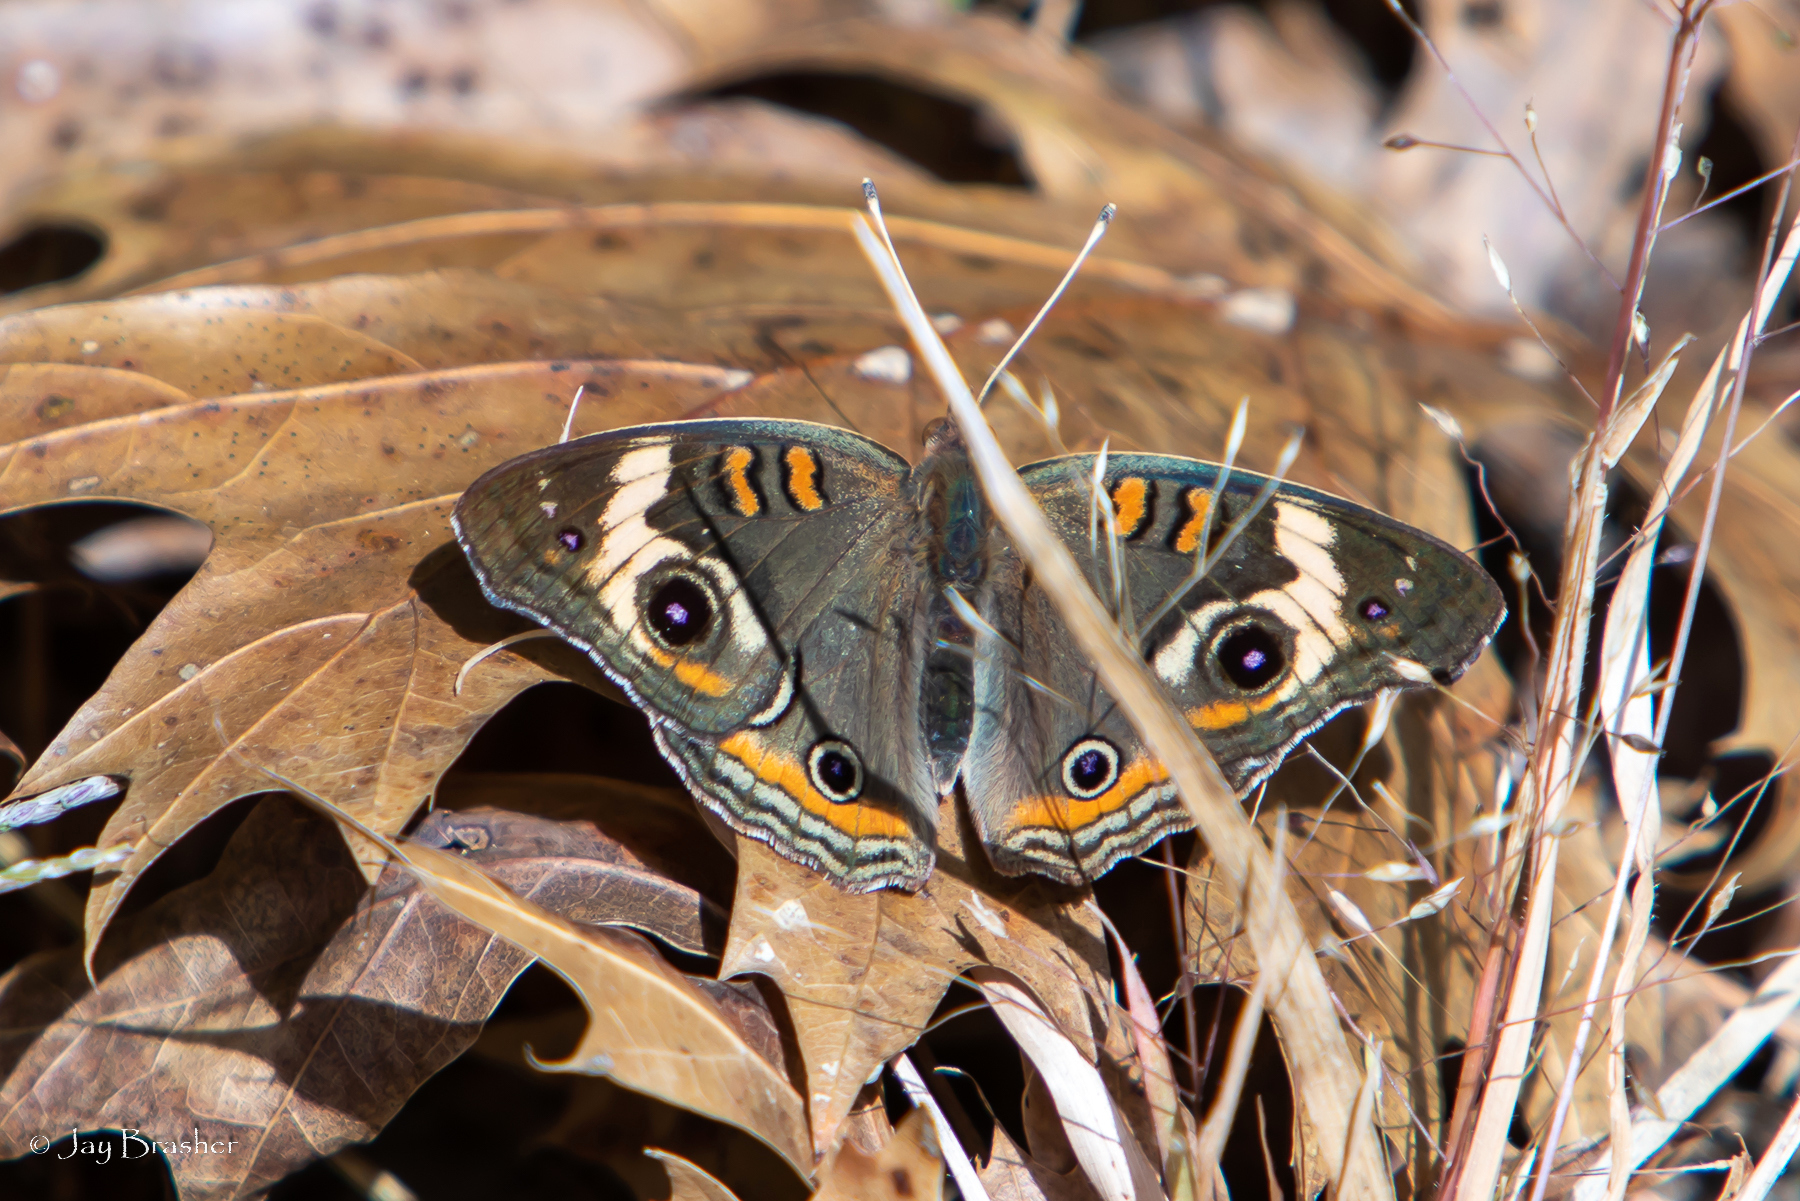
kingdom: Animalia
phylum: Arthropoda
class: Insecta
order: Lepidoptera
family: Nymphalidae
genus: Junonia
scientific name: Junonia coenia
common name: Common buckeye
